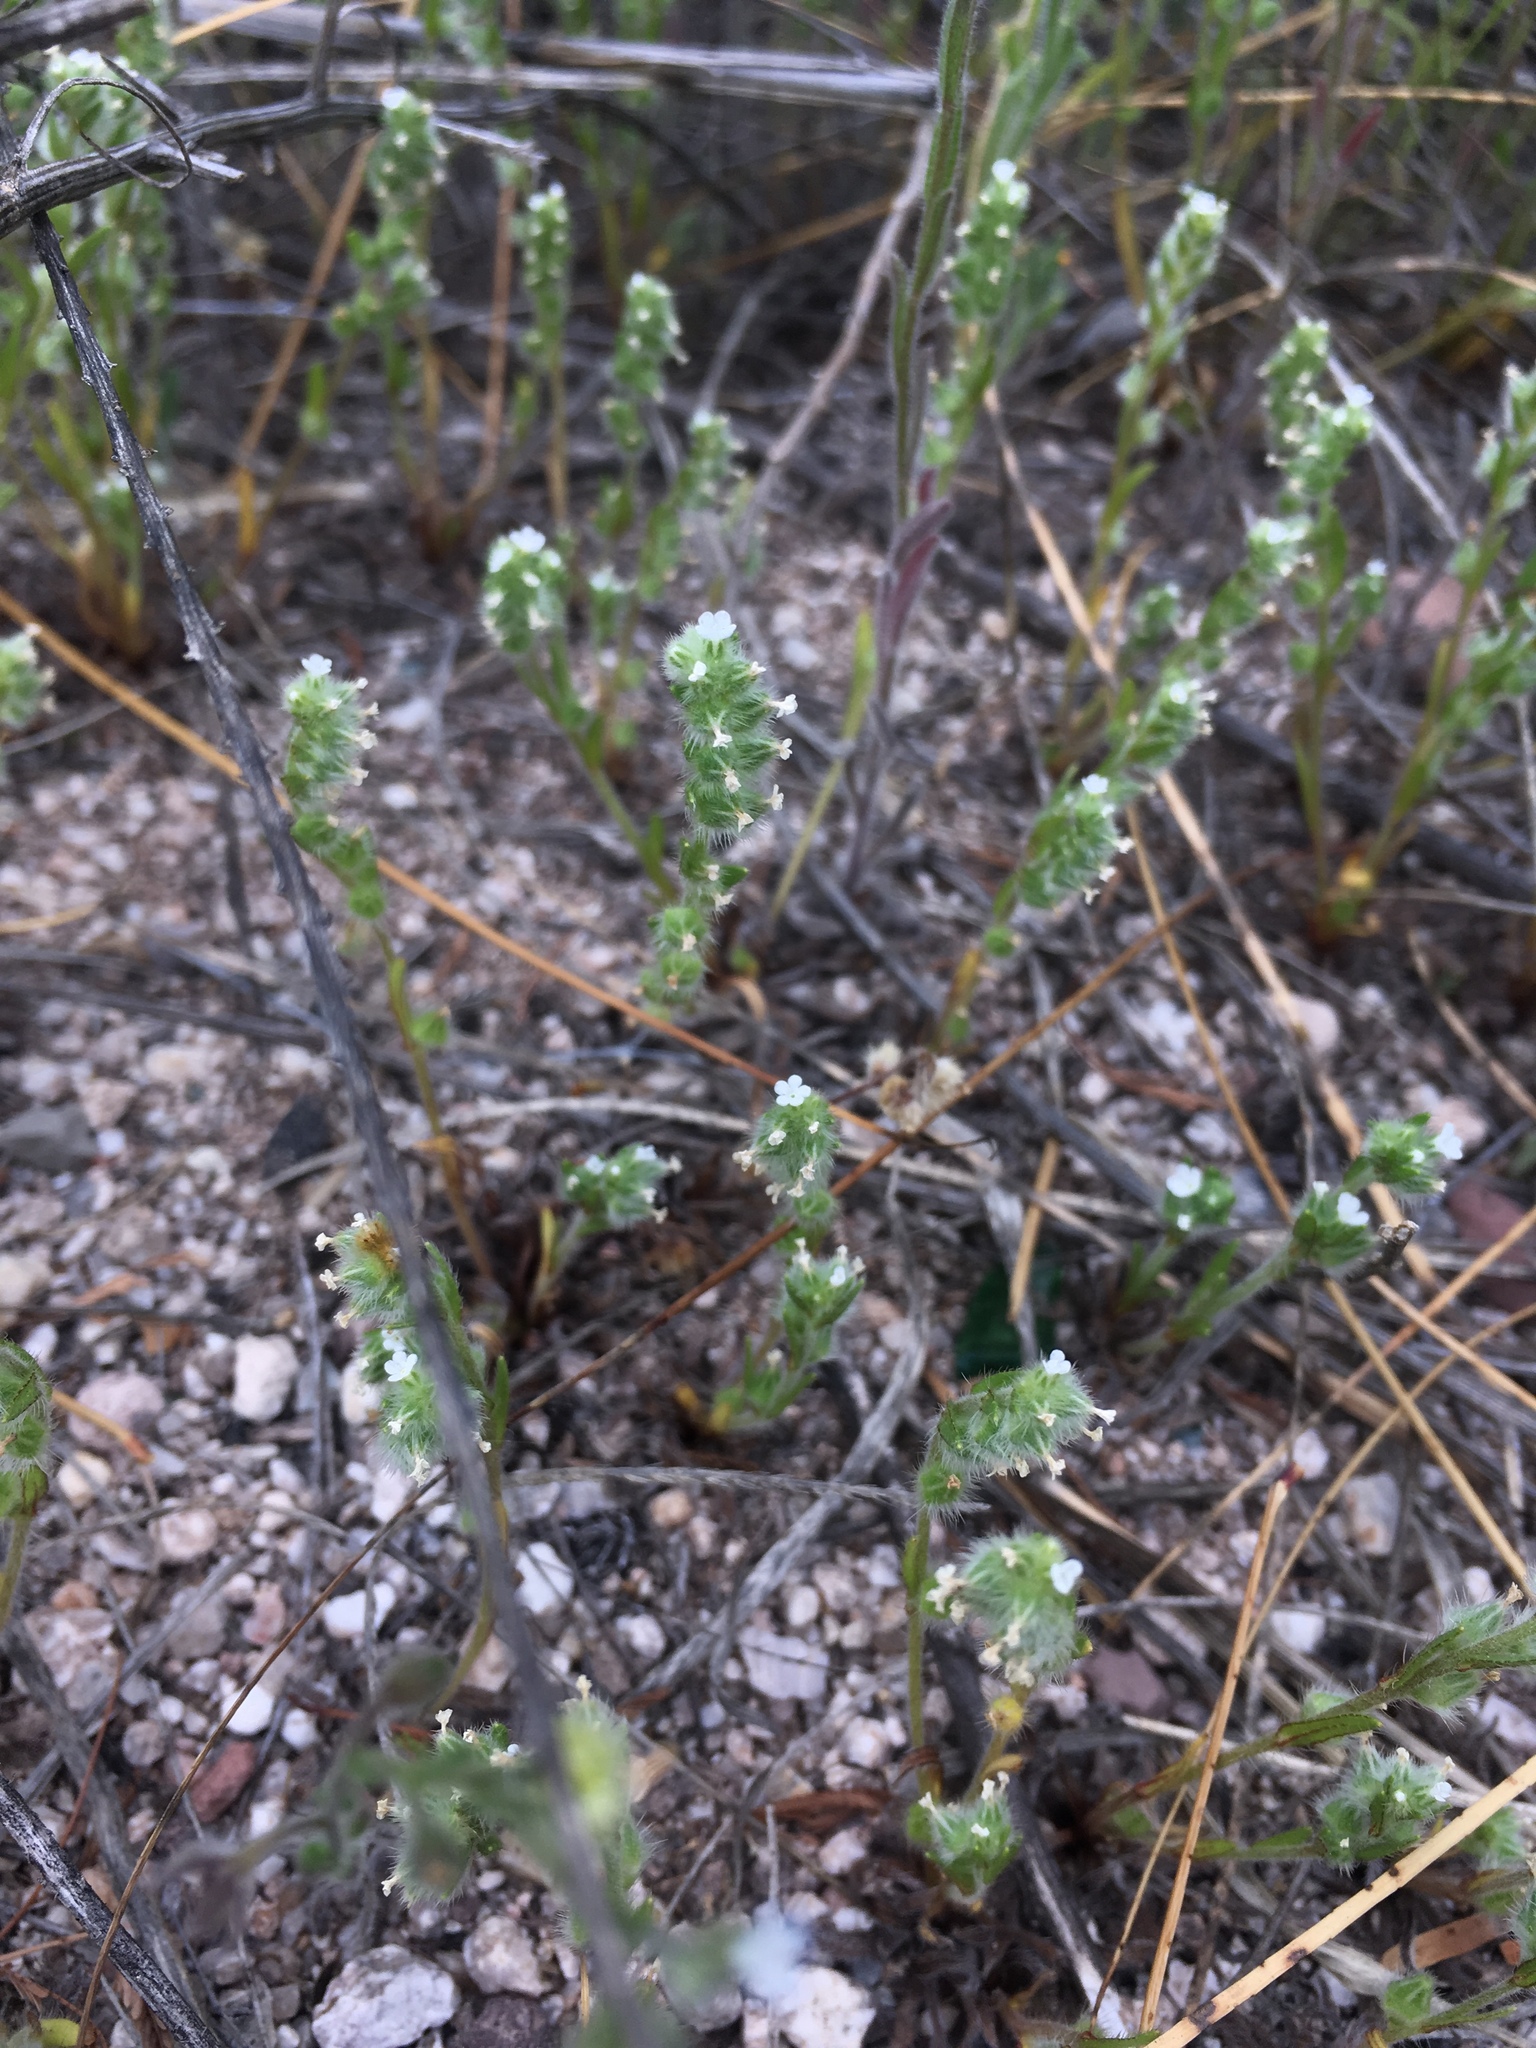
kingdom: Plantae
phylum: Tracheophyta
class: Magnoliopsida
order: Boraginales
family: Boraginaceae
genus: Lappula
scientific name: Lappula occidentalis
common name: Western stickseed
